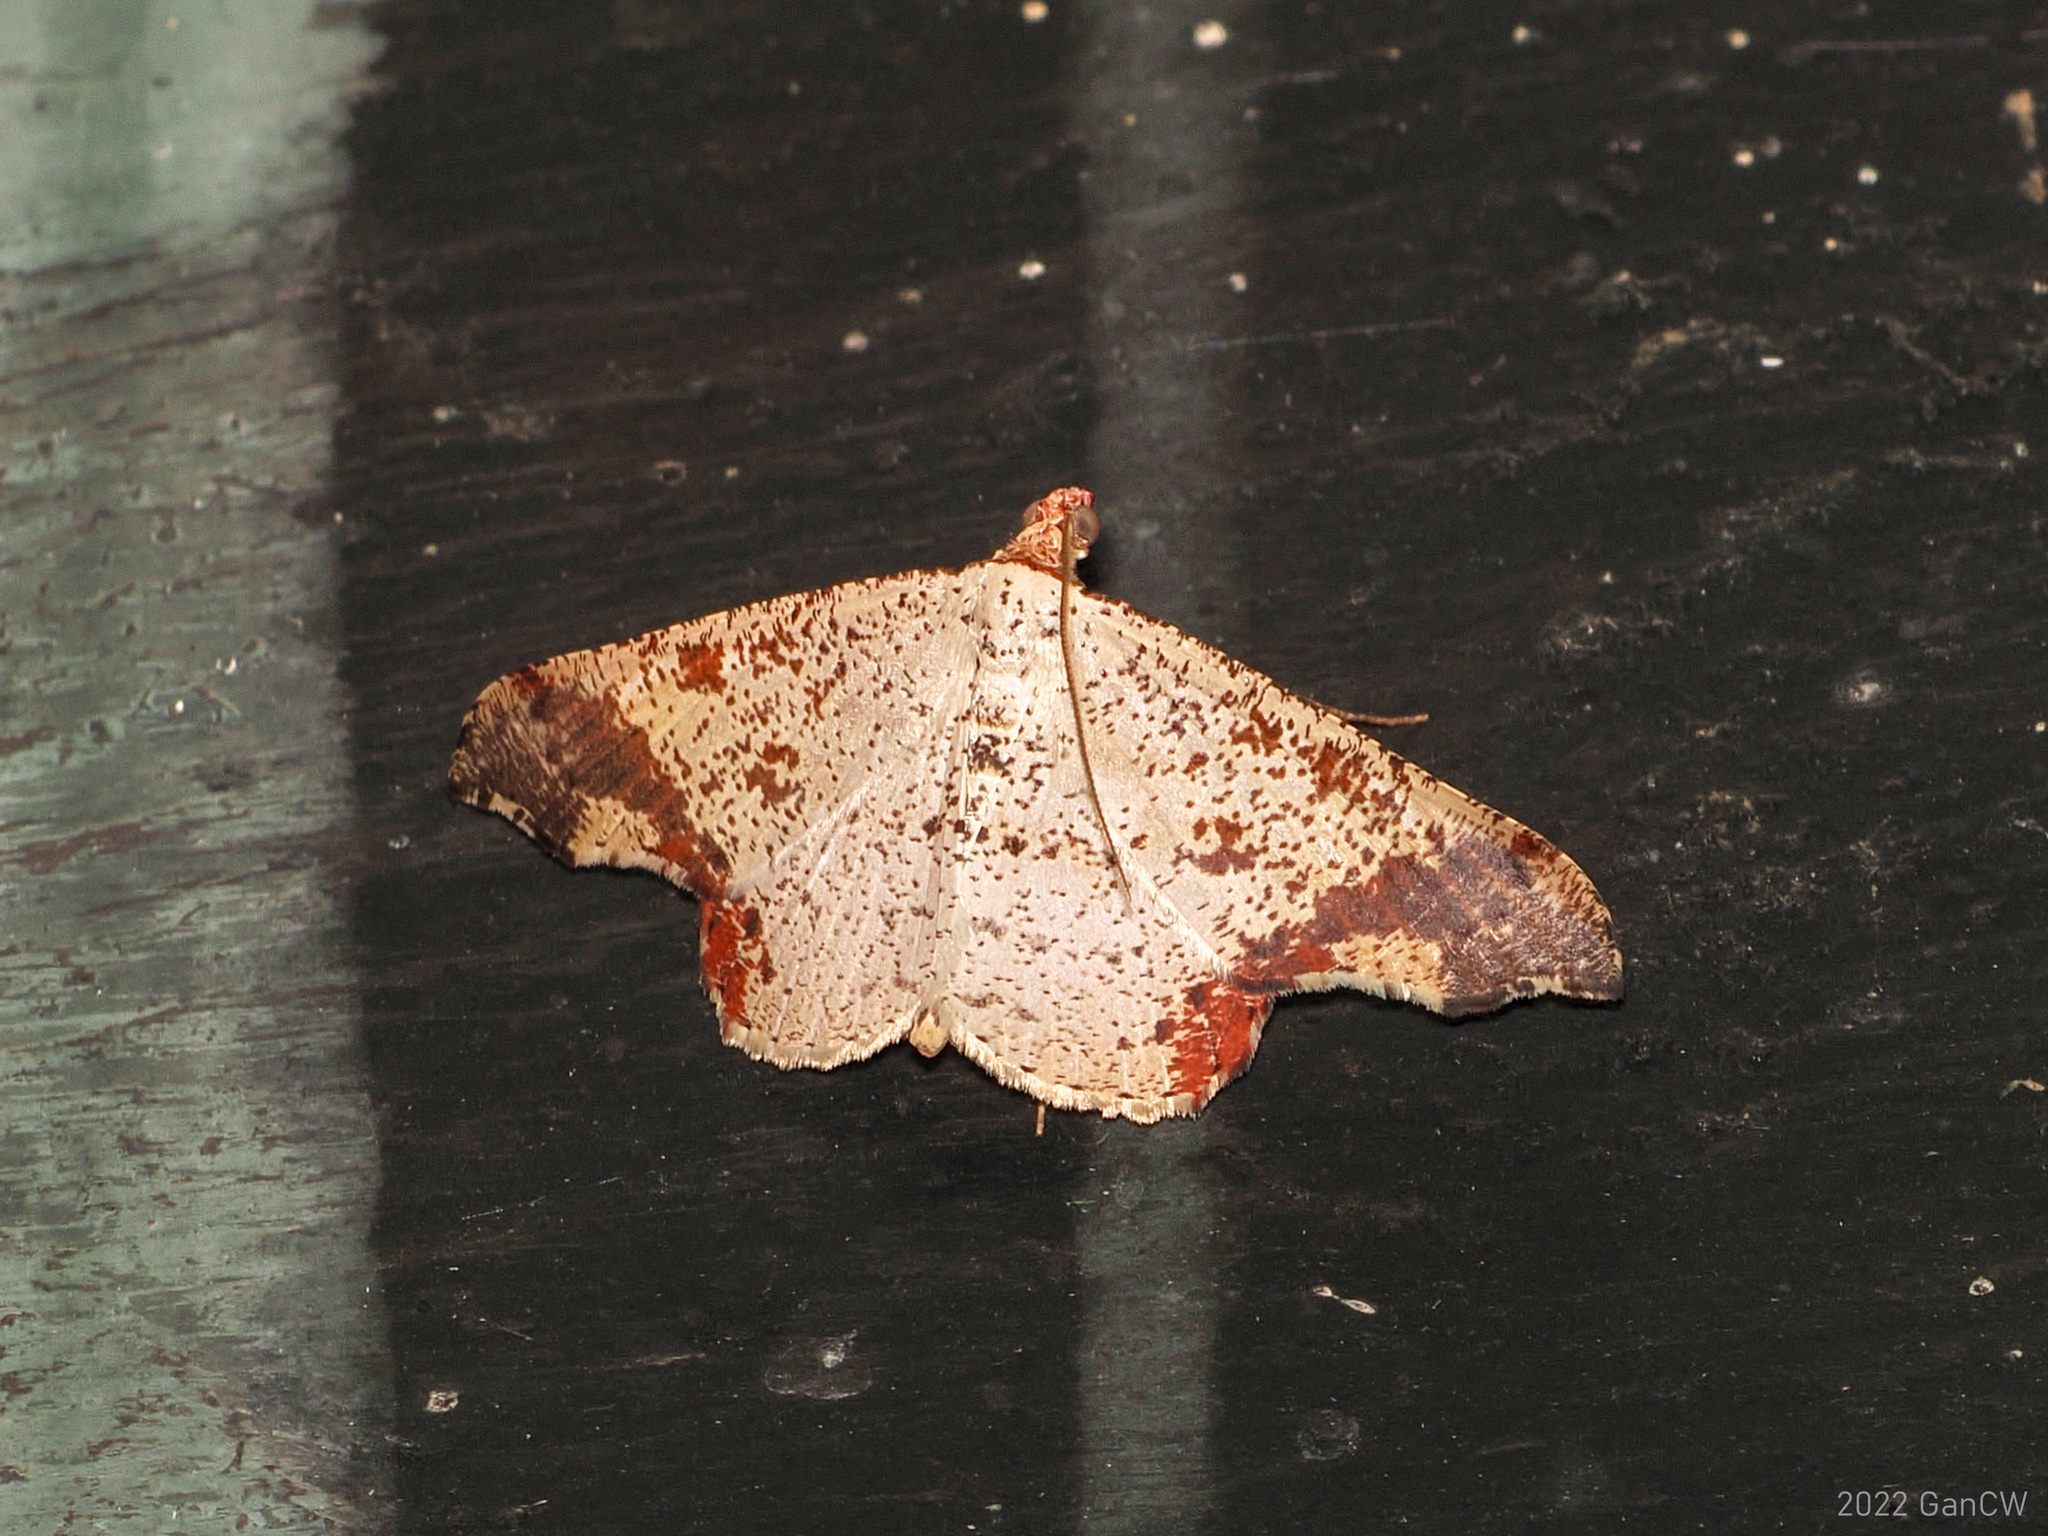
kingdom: Animalia
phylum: Arthropoda
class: Insecta
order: Lepidoptera
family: Geometridae
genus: Ozola
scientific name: Ozola pannosa
